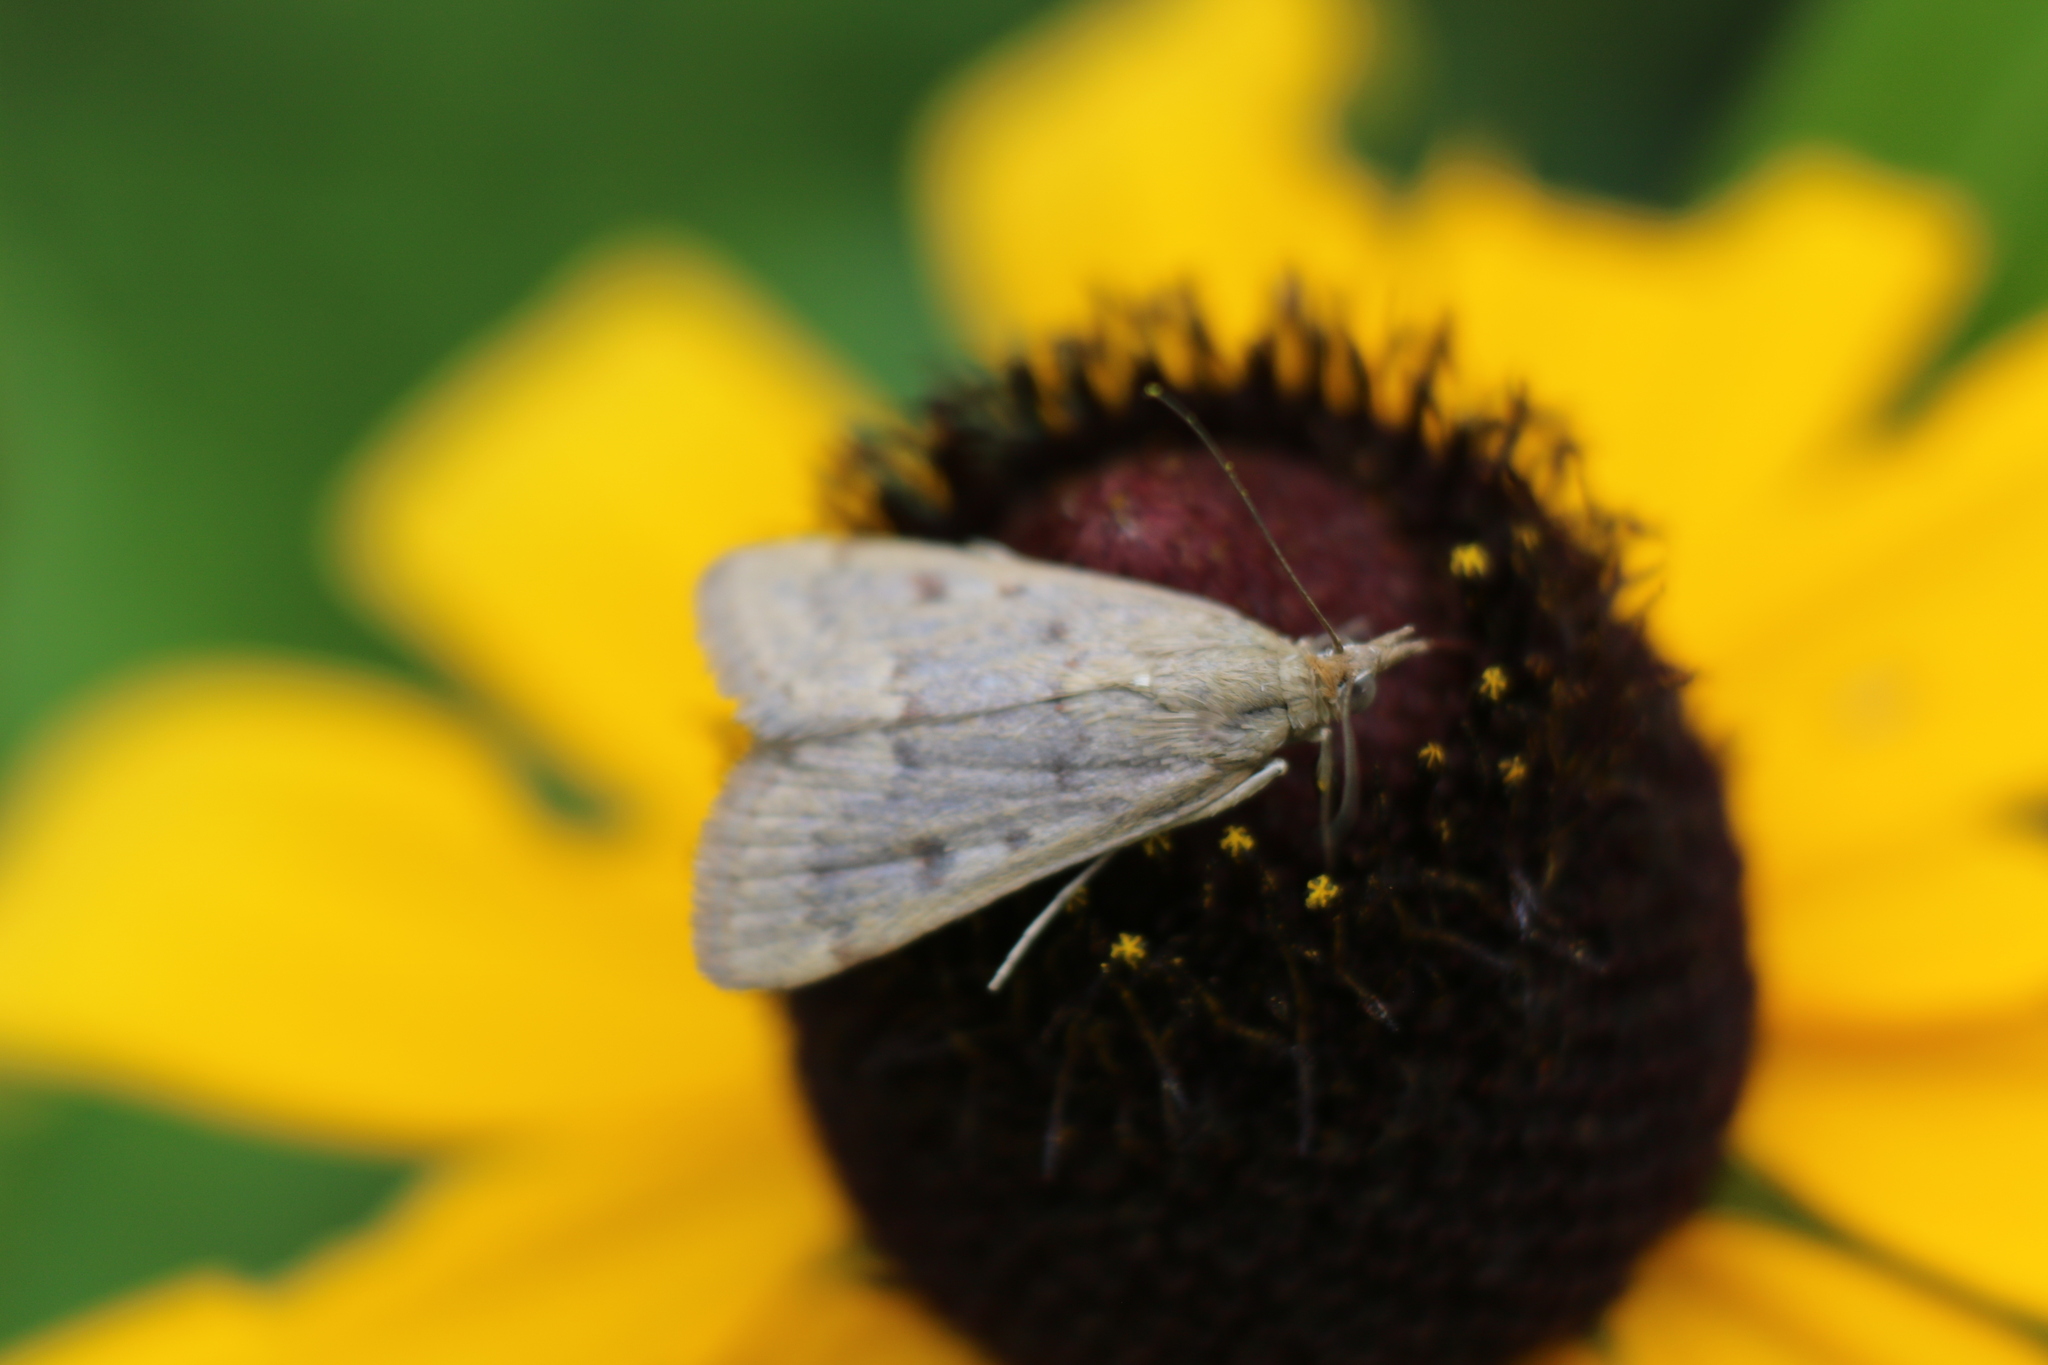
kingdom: Animalia
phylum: Arthropoda
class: Insecta
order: Lepidoptera
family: Crambidae
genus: Achyra
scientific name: Achyra rantalis
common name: Garden webworm
